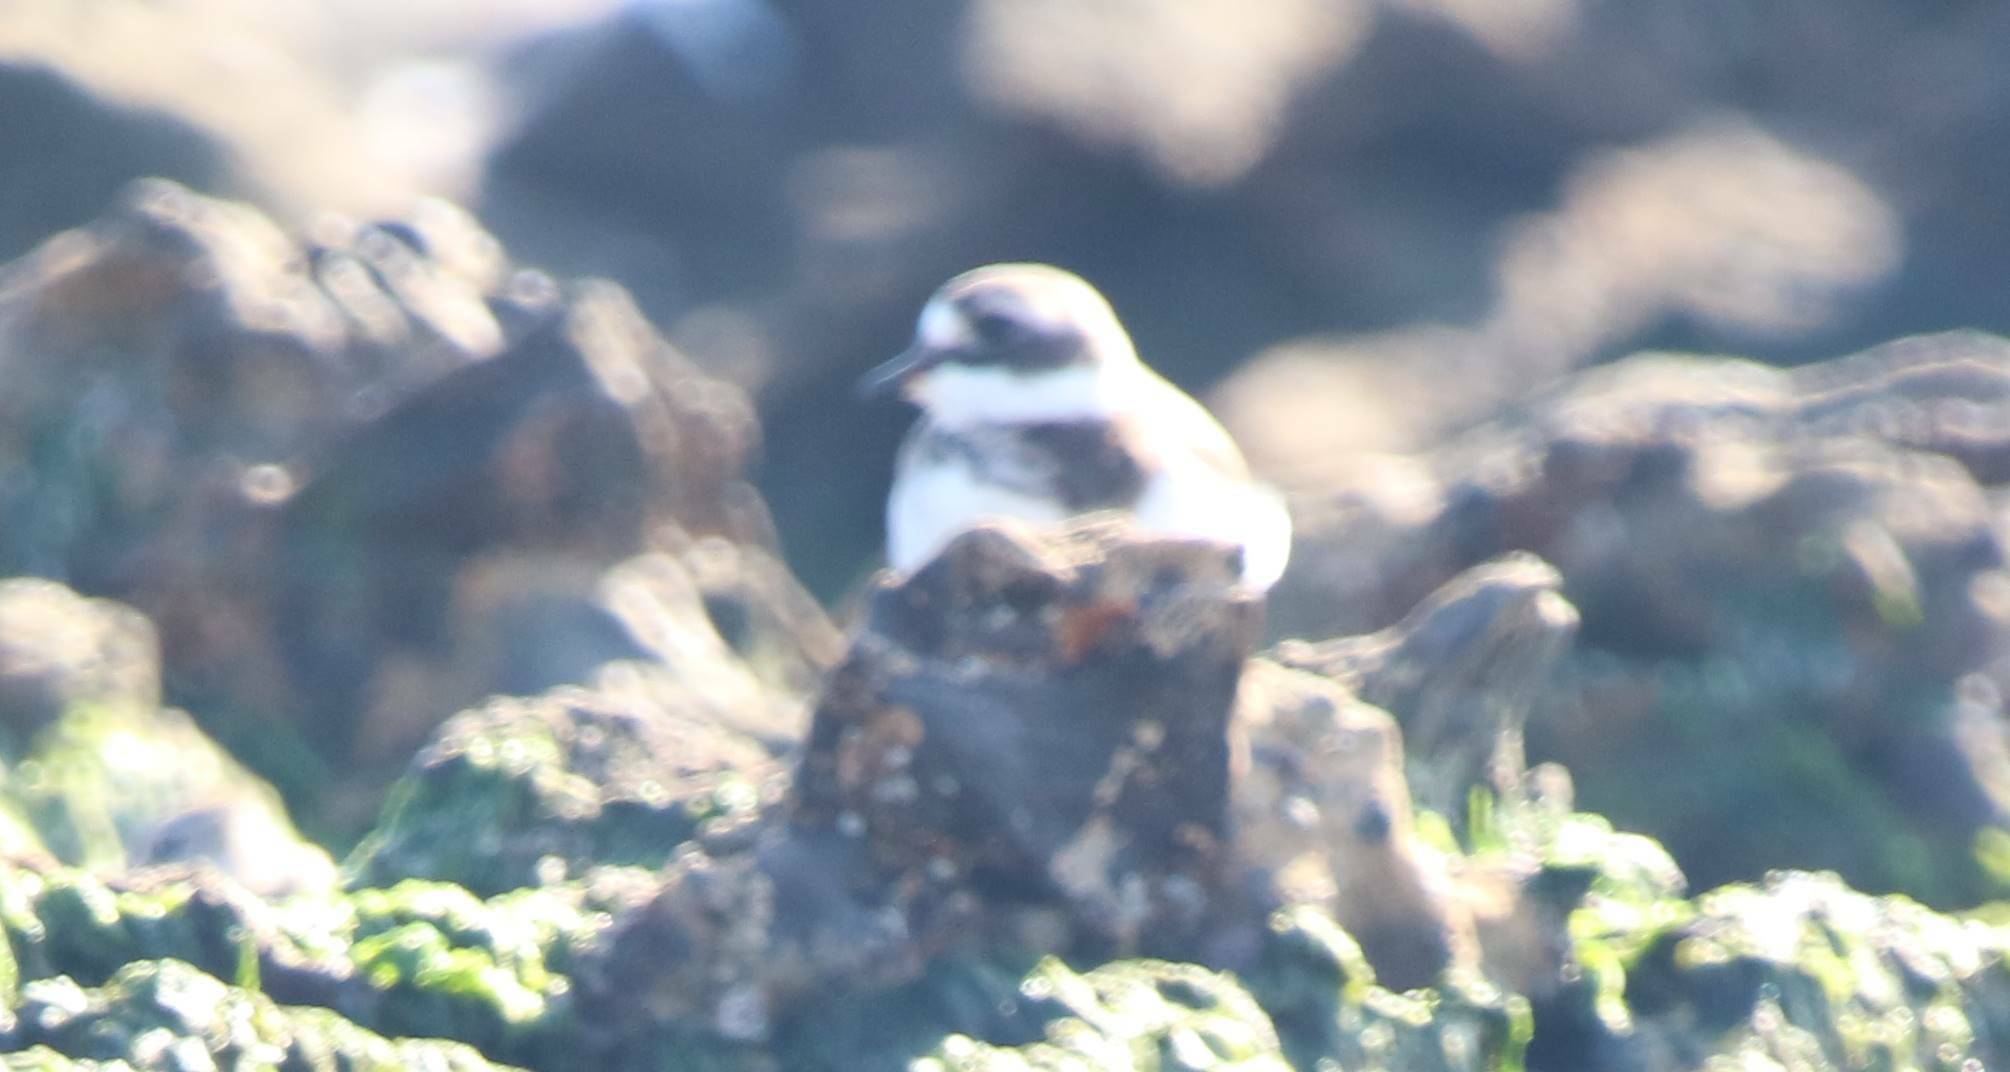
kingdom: Animalia
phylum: Chordata
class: Aves
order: Charadriiformes
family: Charadriidae
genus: Charadrius
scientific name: Charadrius hiaticula
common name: Common ringed plover
